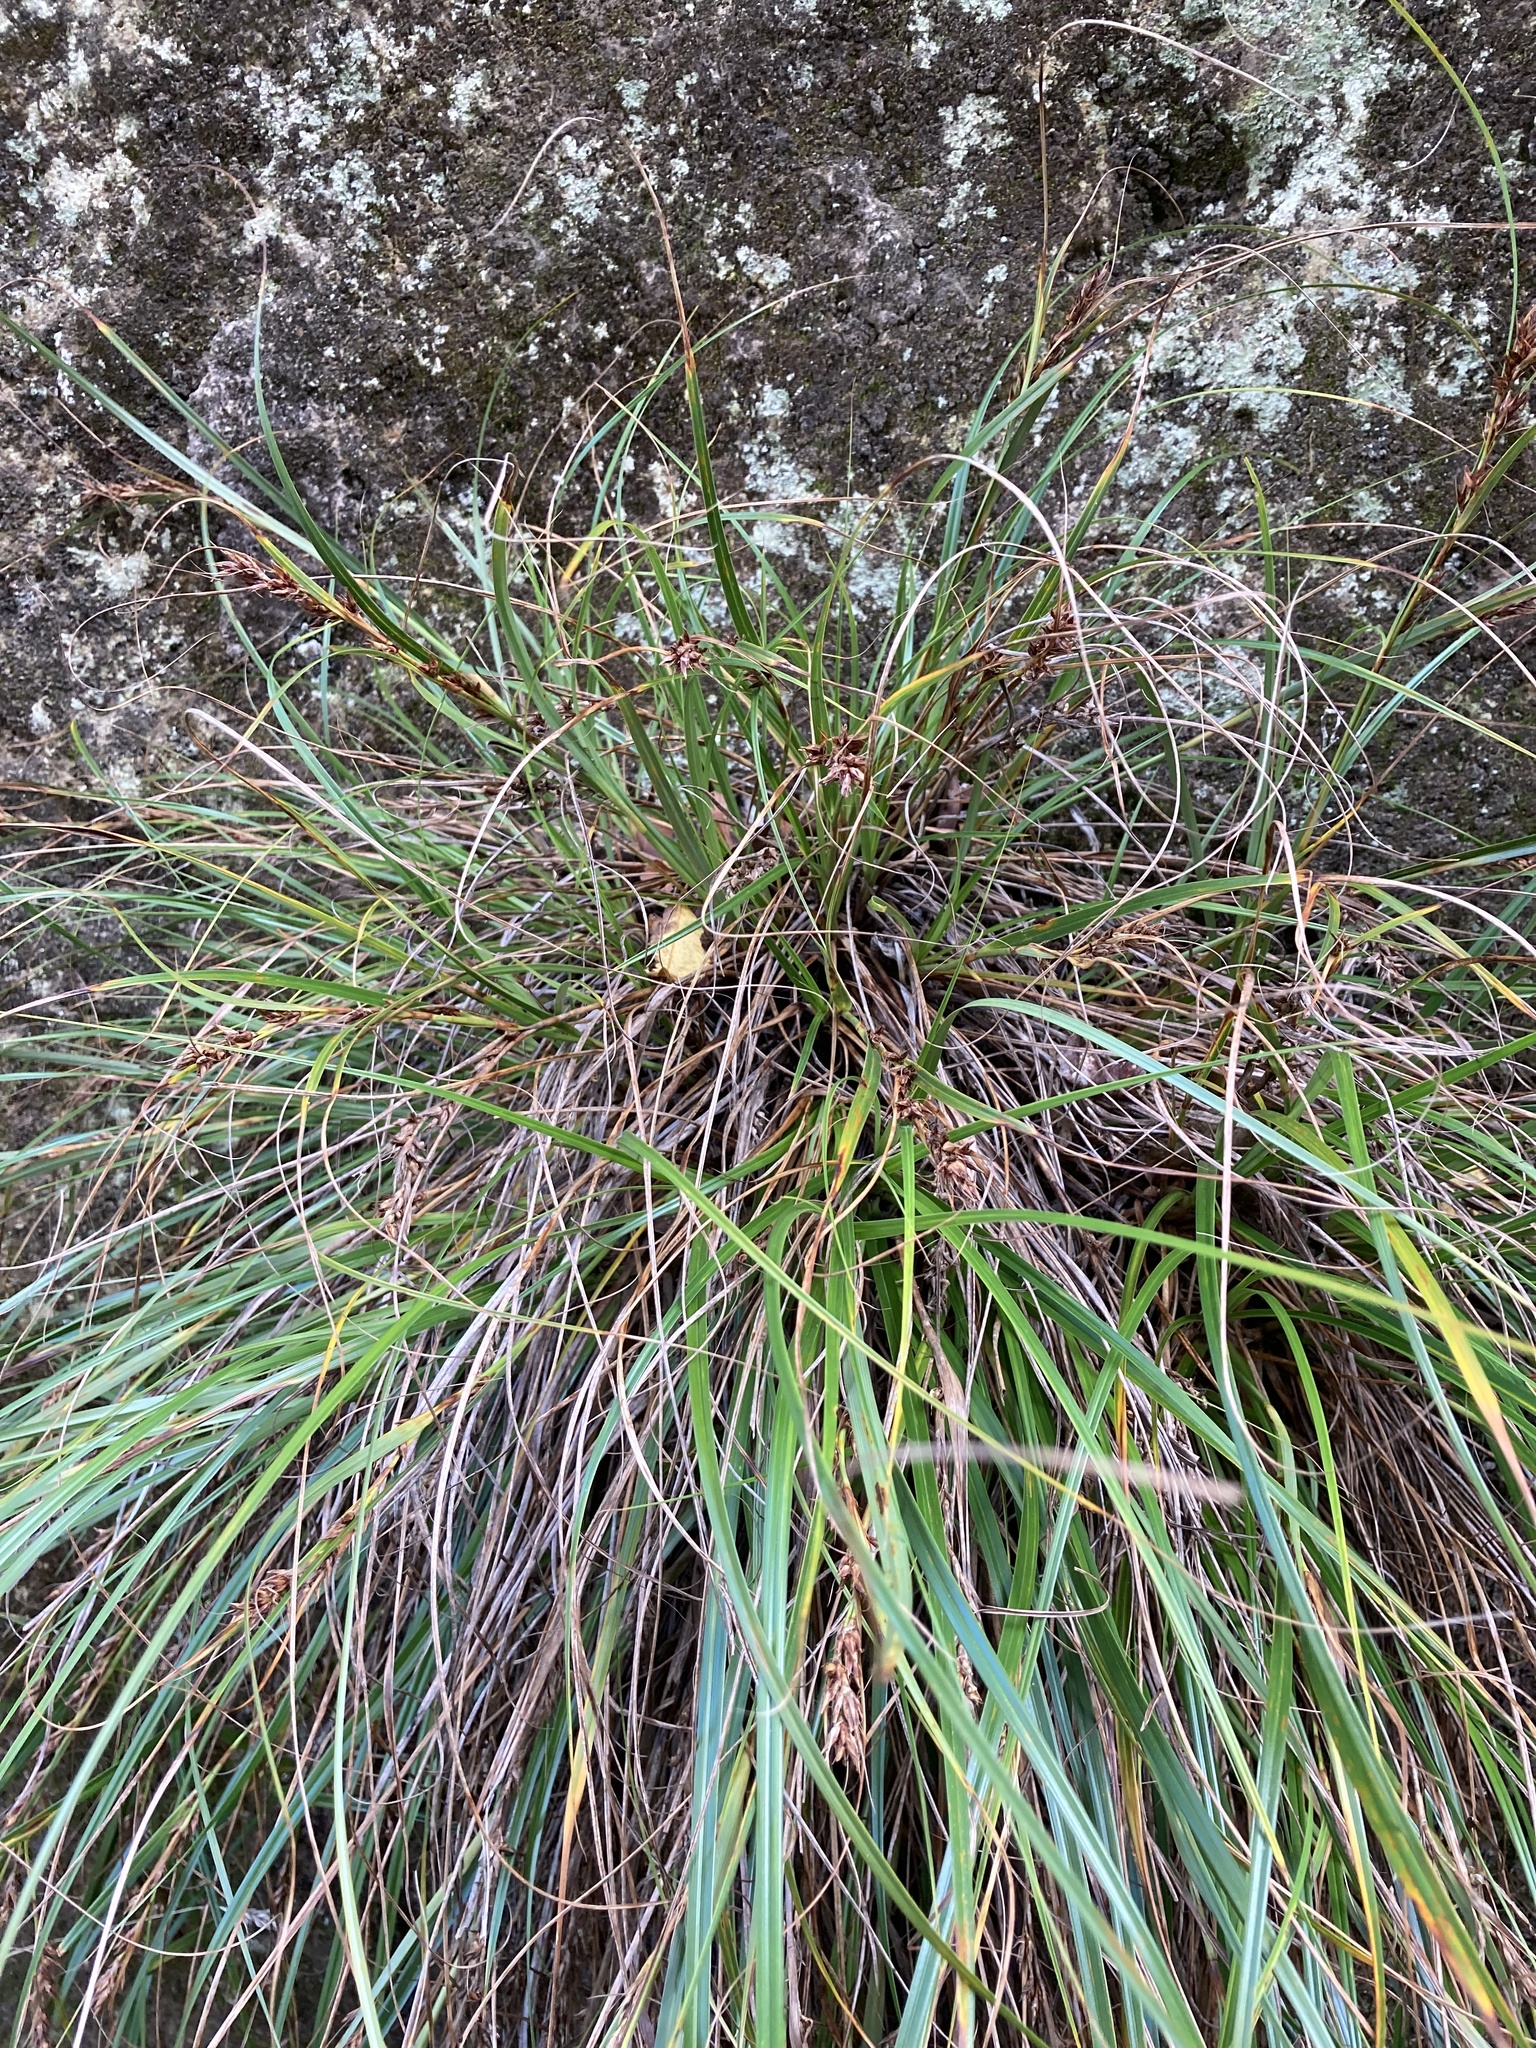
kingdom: Plantae
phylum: Tracheophyta
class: Liliopsida
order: Poales
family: Cyperaceae
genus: Morelotia
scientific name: Morelotia affinis
